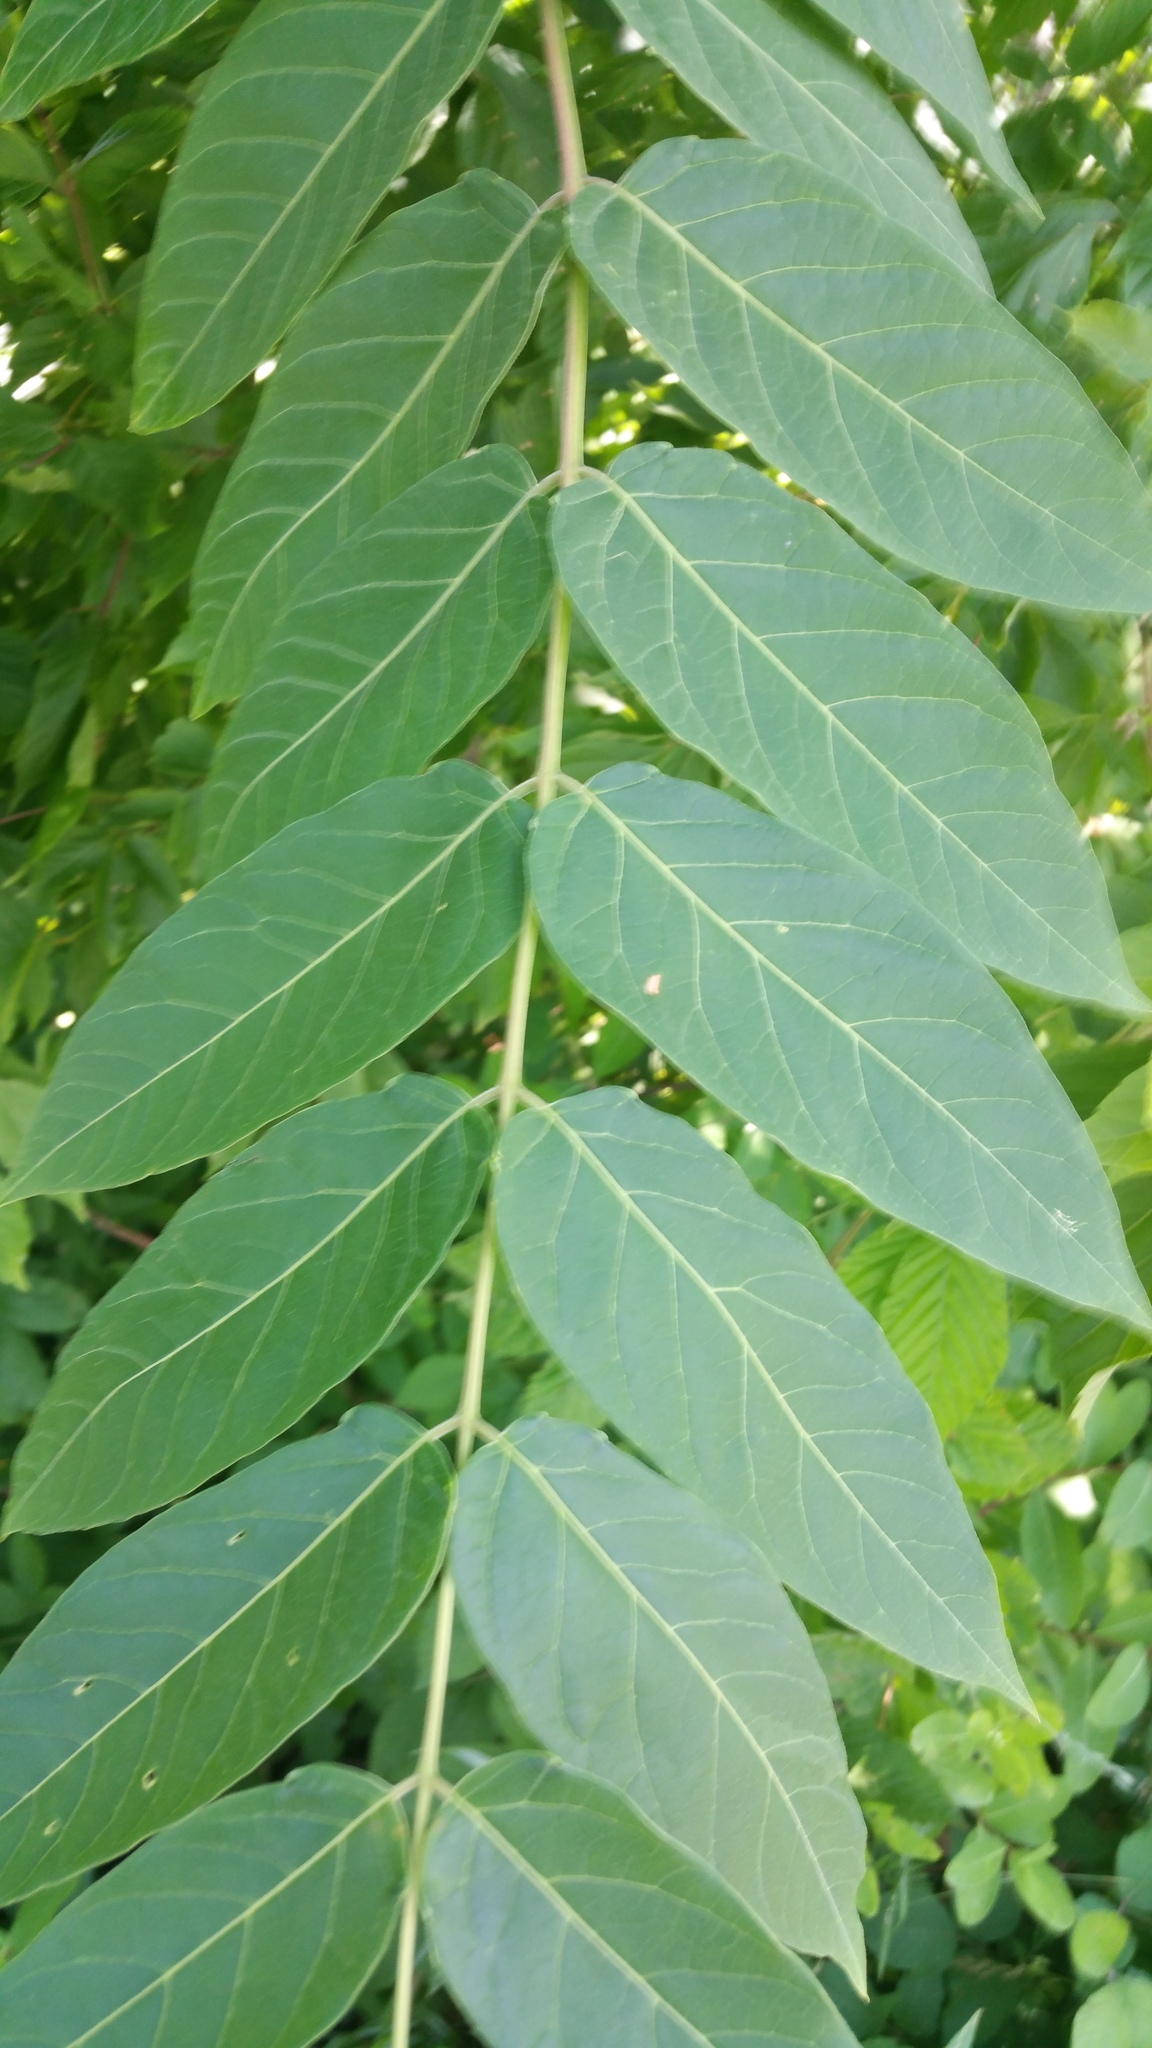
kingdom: Plantae
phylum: Tracheophyta
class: Magnoliopsida
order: Sapindales
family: Simaroubaceae
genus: Ailanthus
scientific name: Ailanthus altissima
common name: Tree-of-heaven
